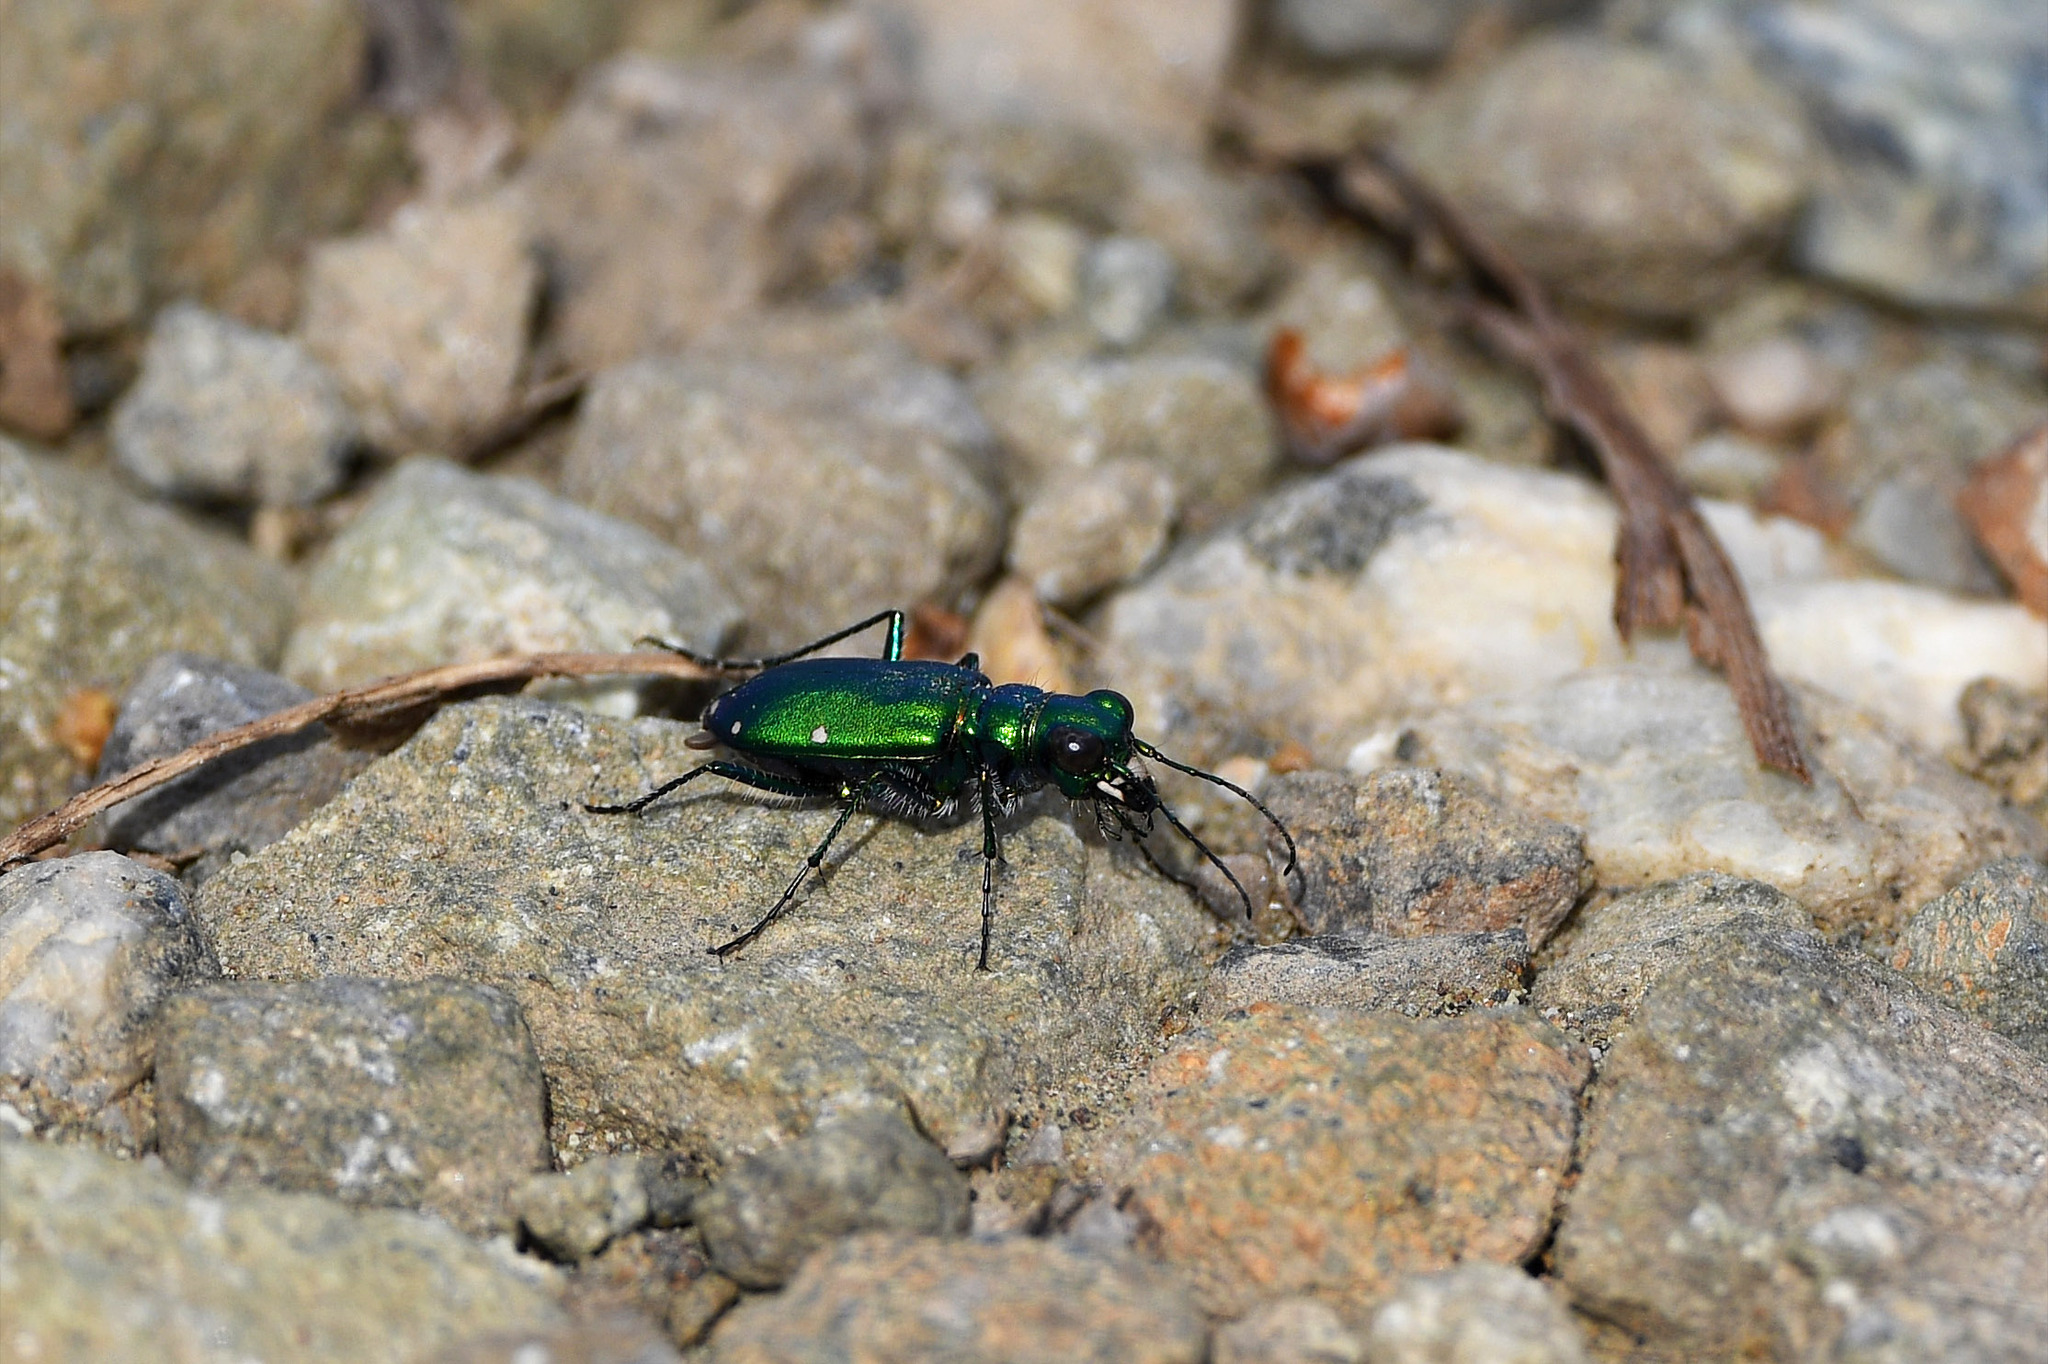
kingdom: Animalia
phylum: Arthropoda
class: Insecta
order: Coleoptera
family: Carabidae
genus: Cicindela
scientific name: Cicindela sexguttata
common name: Six-spotted tiger beetle
